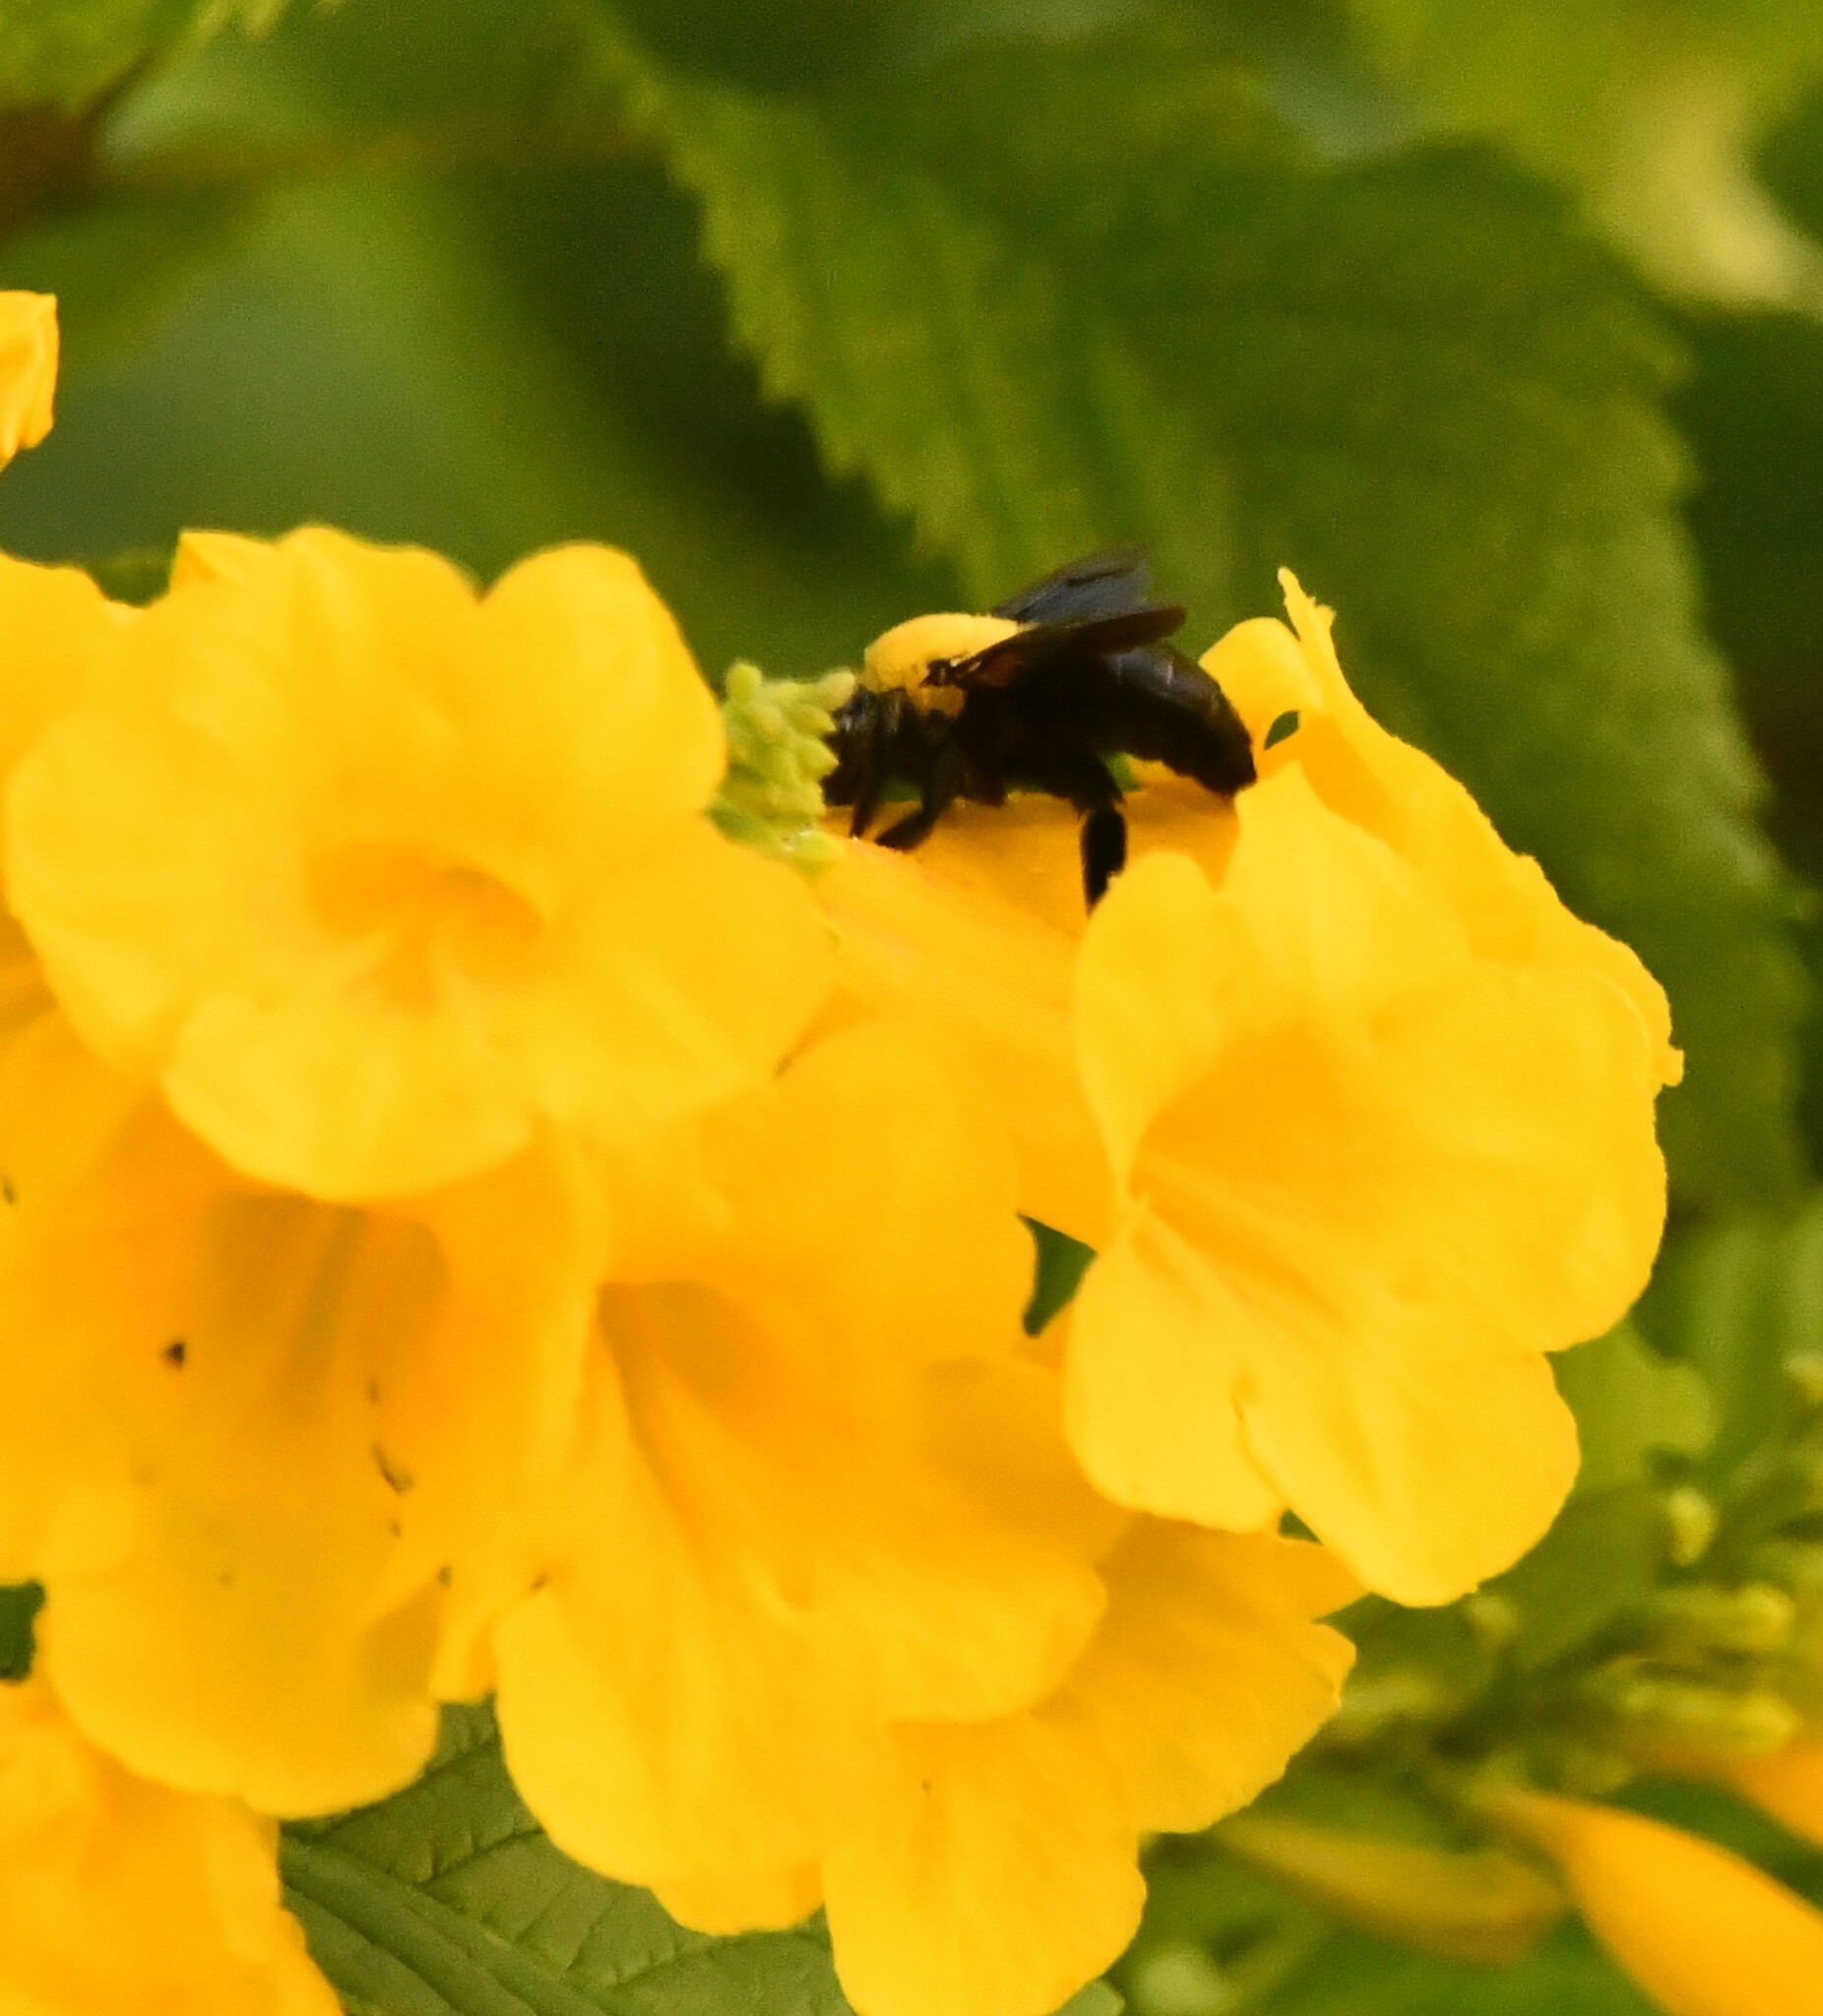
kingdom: Animalia
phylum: Arthropoda
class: Insecta
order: Hymenoptera
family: Apidae
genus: Xylocopa
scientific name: Xylocopa ruficornis
